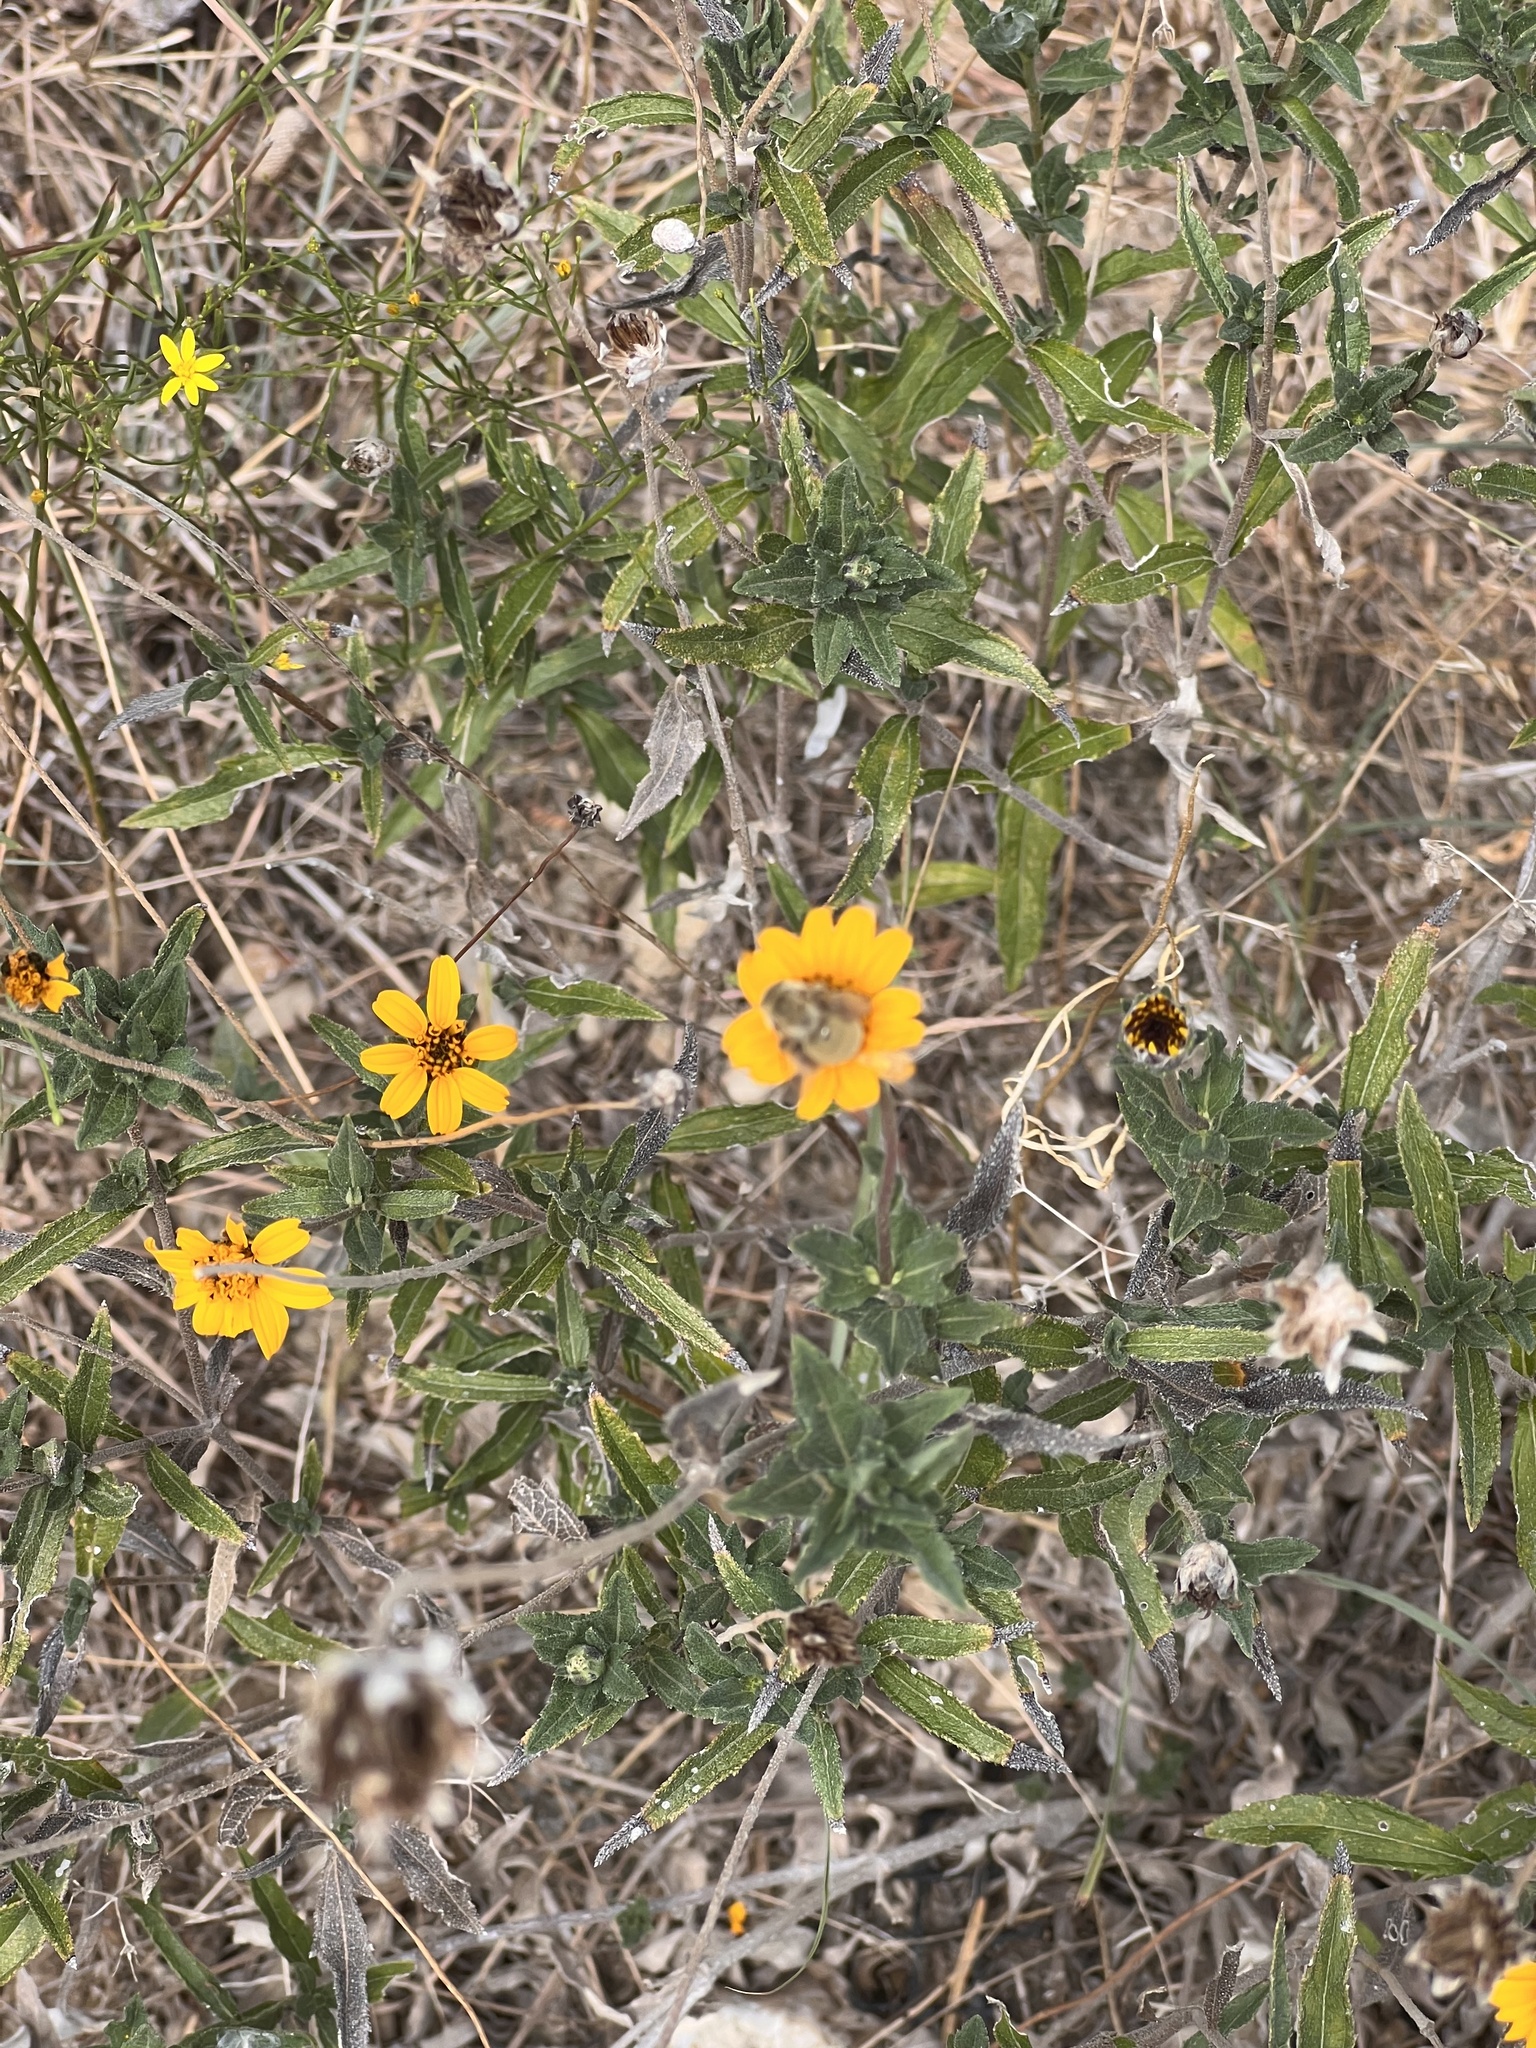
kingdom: Plantae
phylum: Tracheophyta
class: Magnoliopsida
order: Asterales
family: Asteraceae
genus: Wedelia
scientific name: Wedelia acapulcensis
